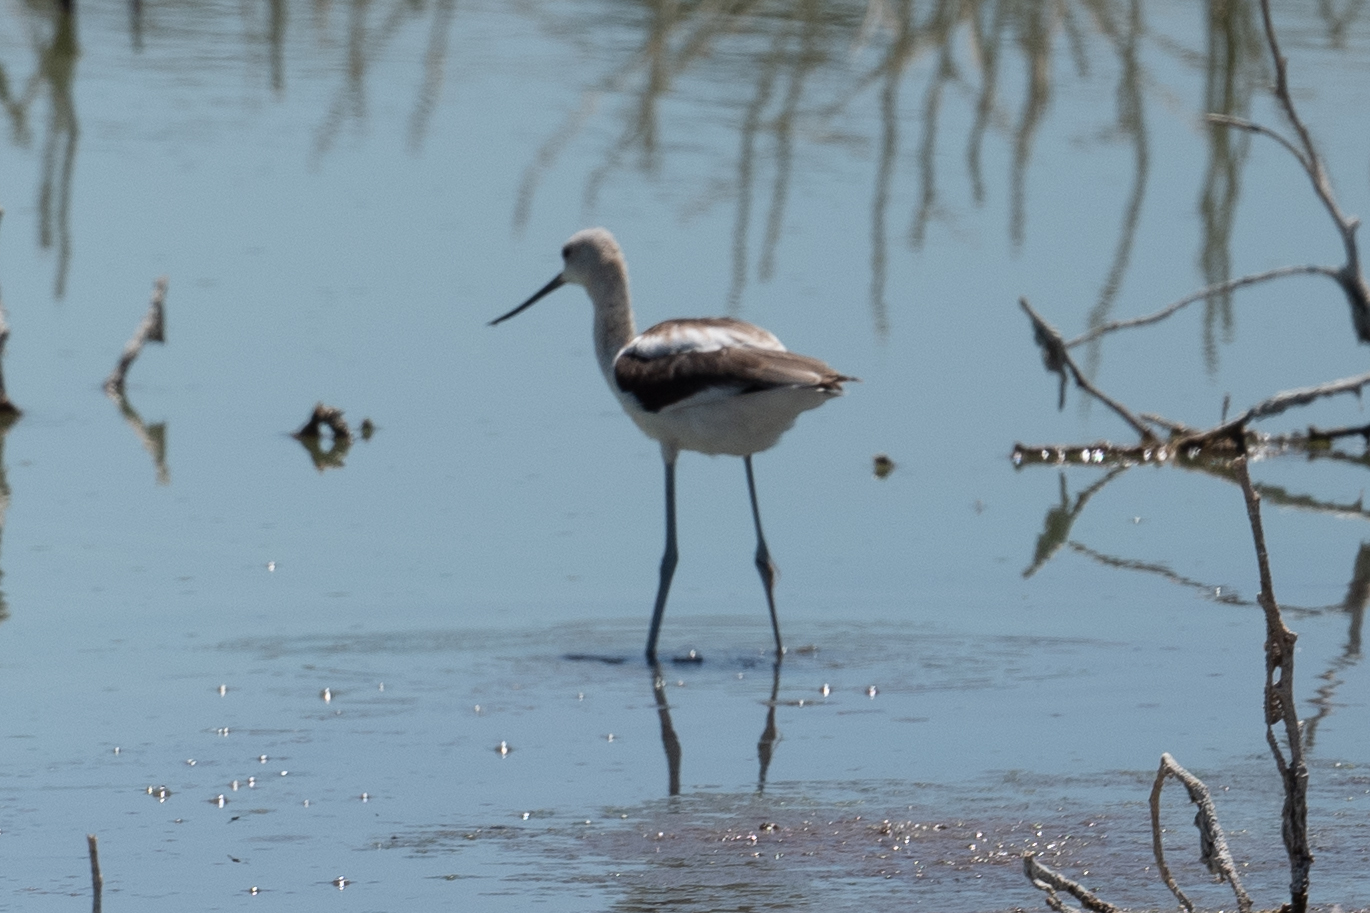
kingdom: Animalia
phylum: Chordata
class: Aves
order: Charadriiformes
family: Recurvirostridae
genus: Recurvirostra
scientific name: Recurvirostra americana
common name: American avocet
